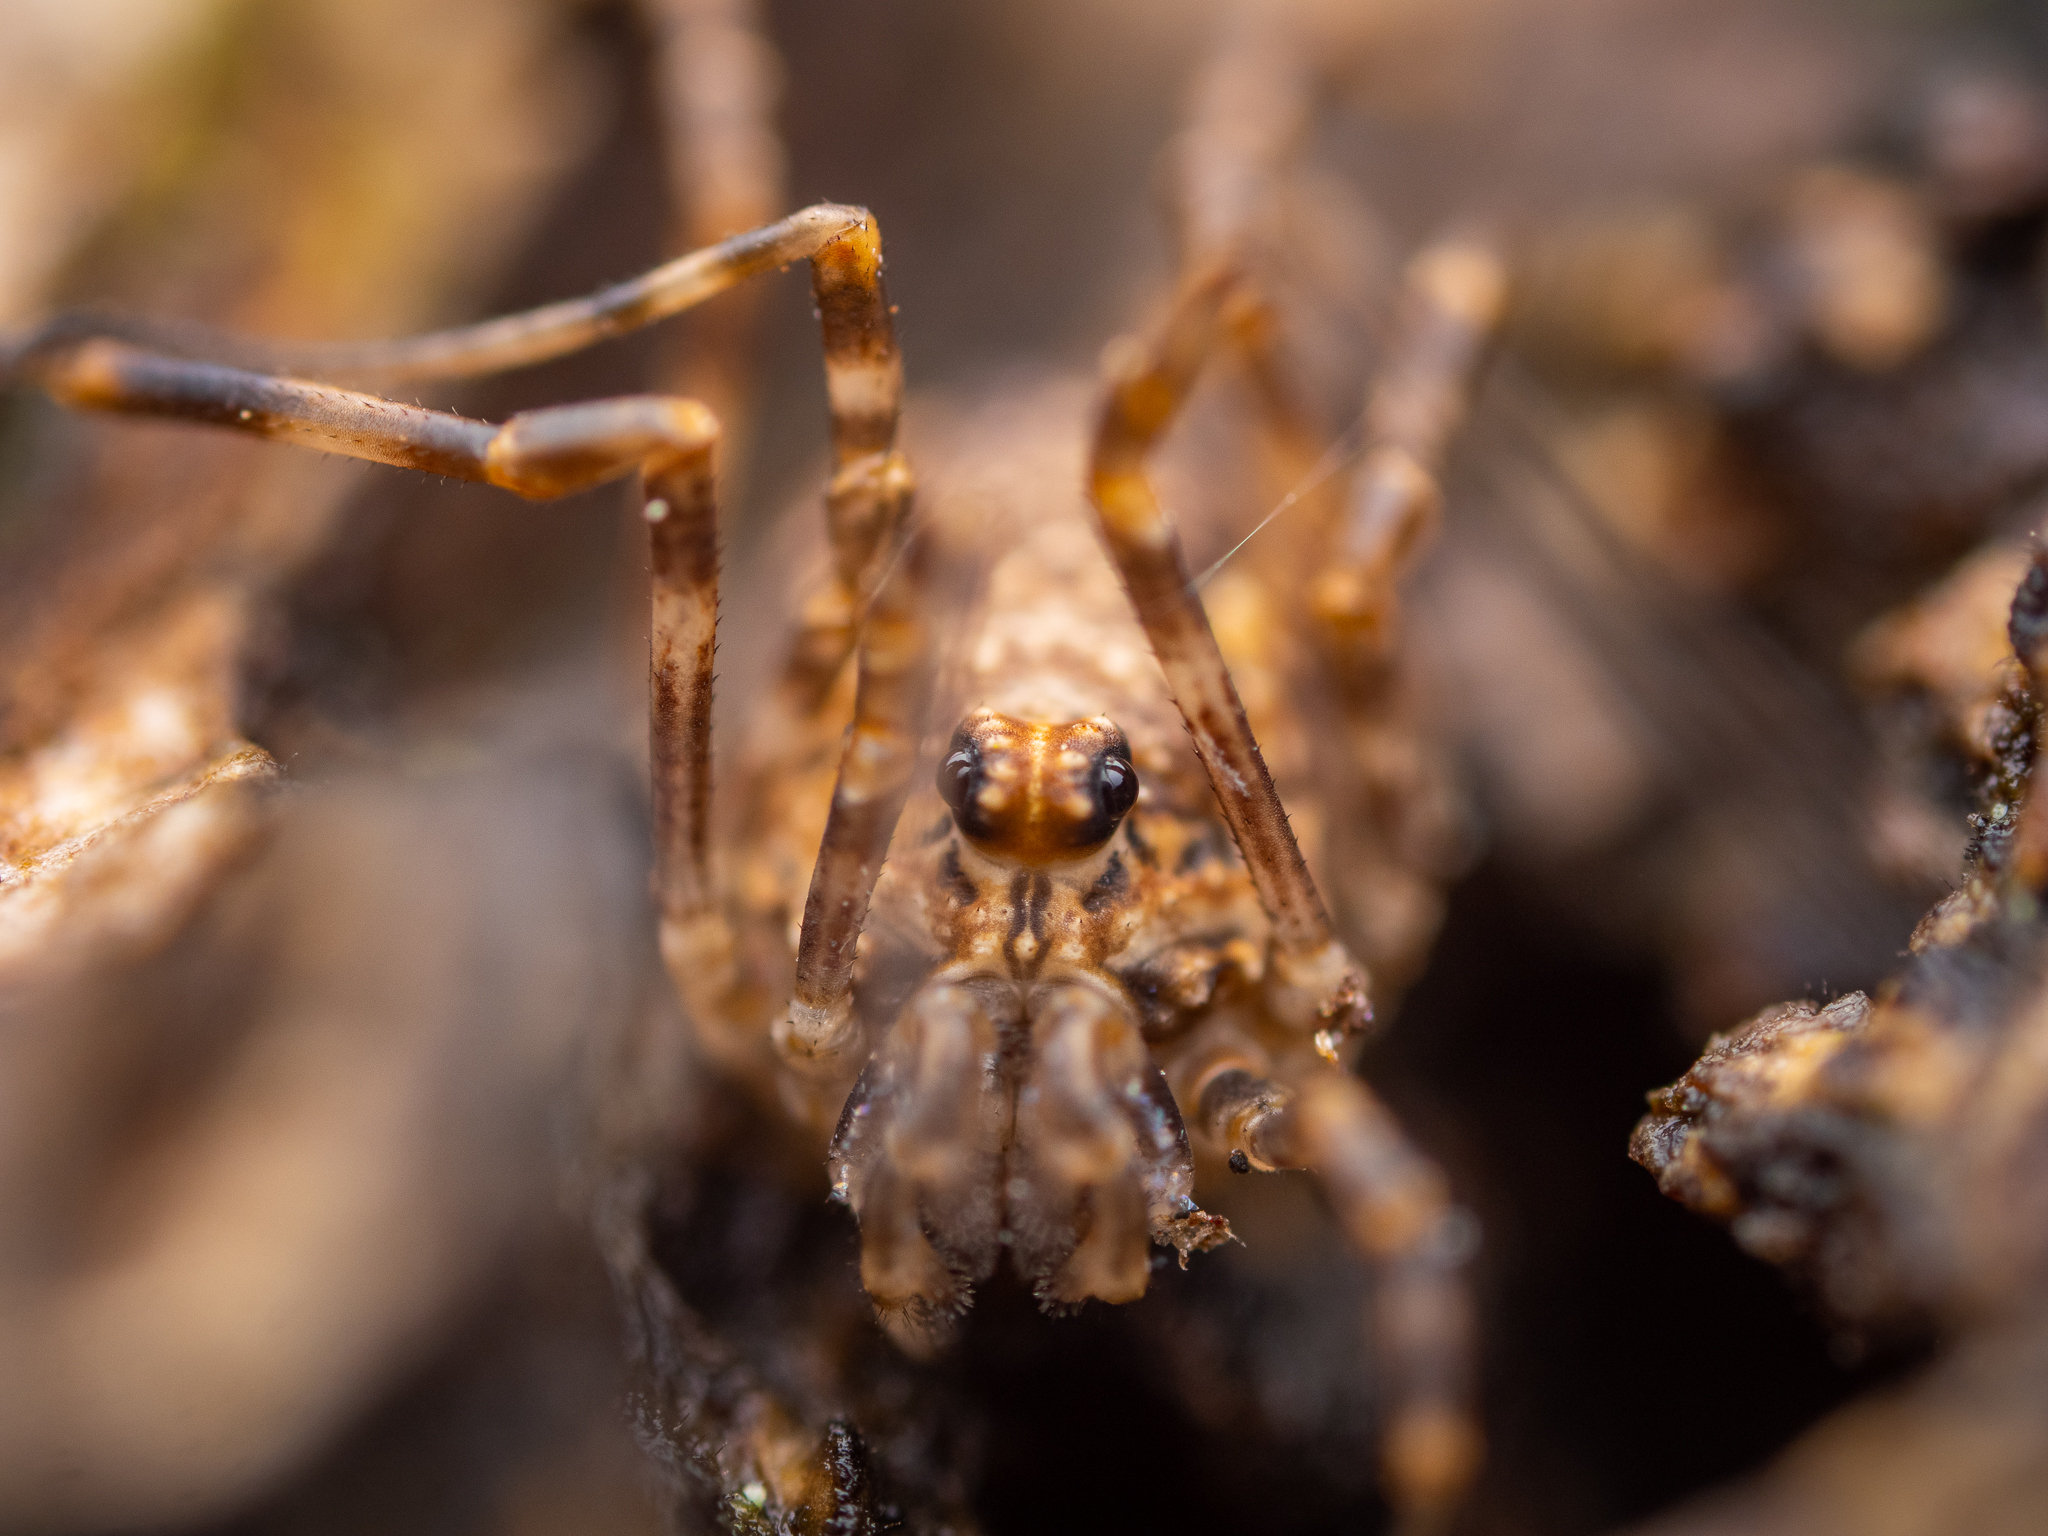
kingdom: Animalia
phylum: Arthropoda
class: Arachnida
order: Opiliones
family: Phalangiidae
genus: Rilaena
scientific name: Rilaena triangularis
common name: Spring harvestman
